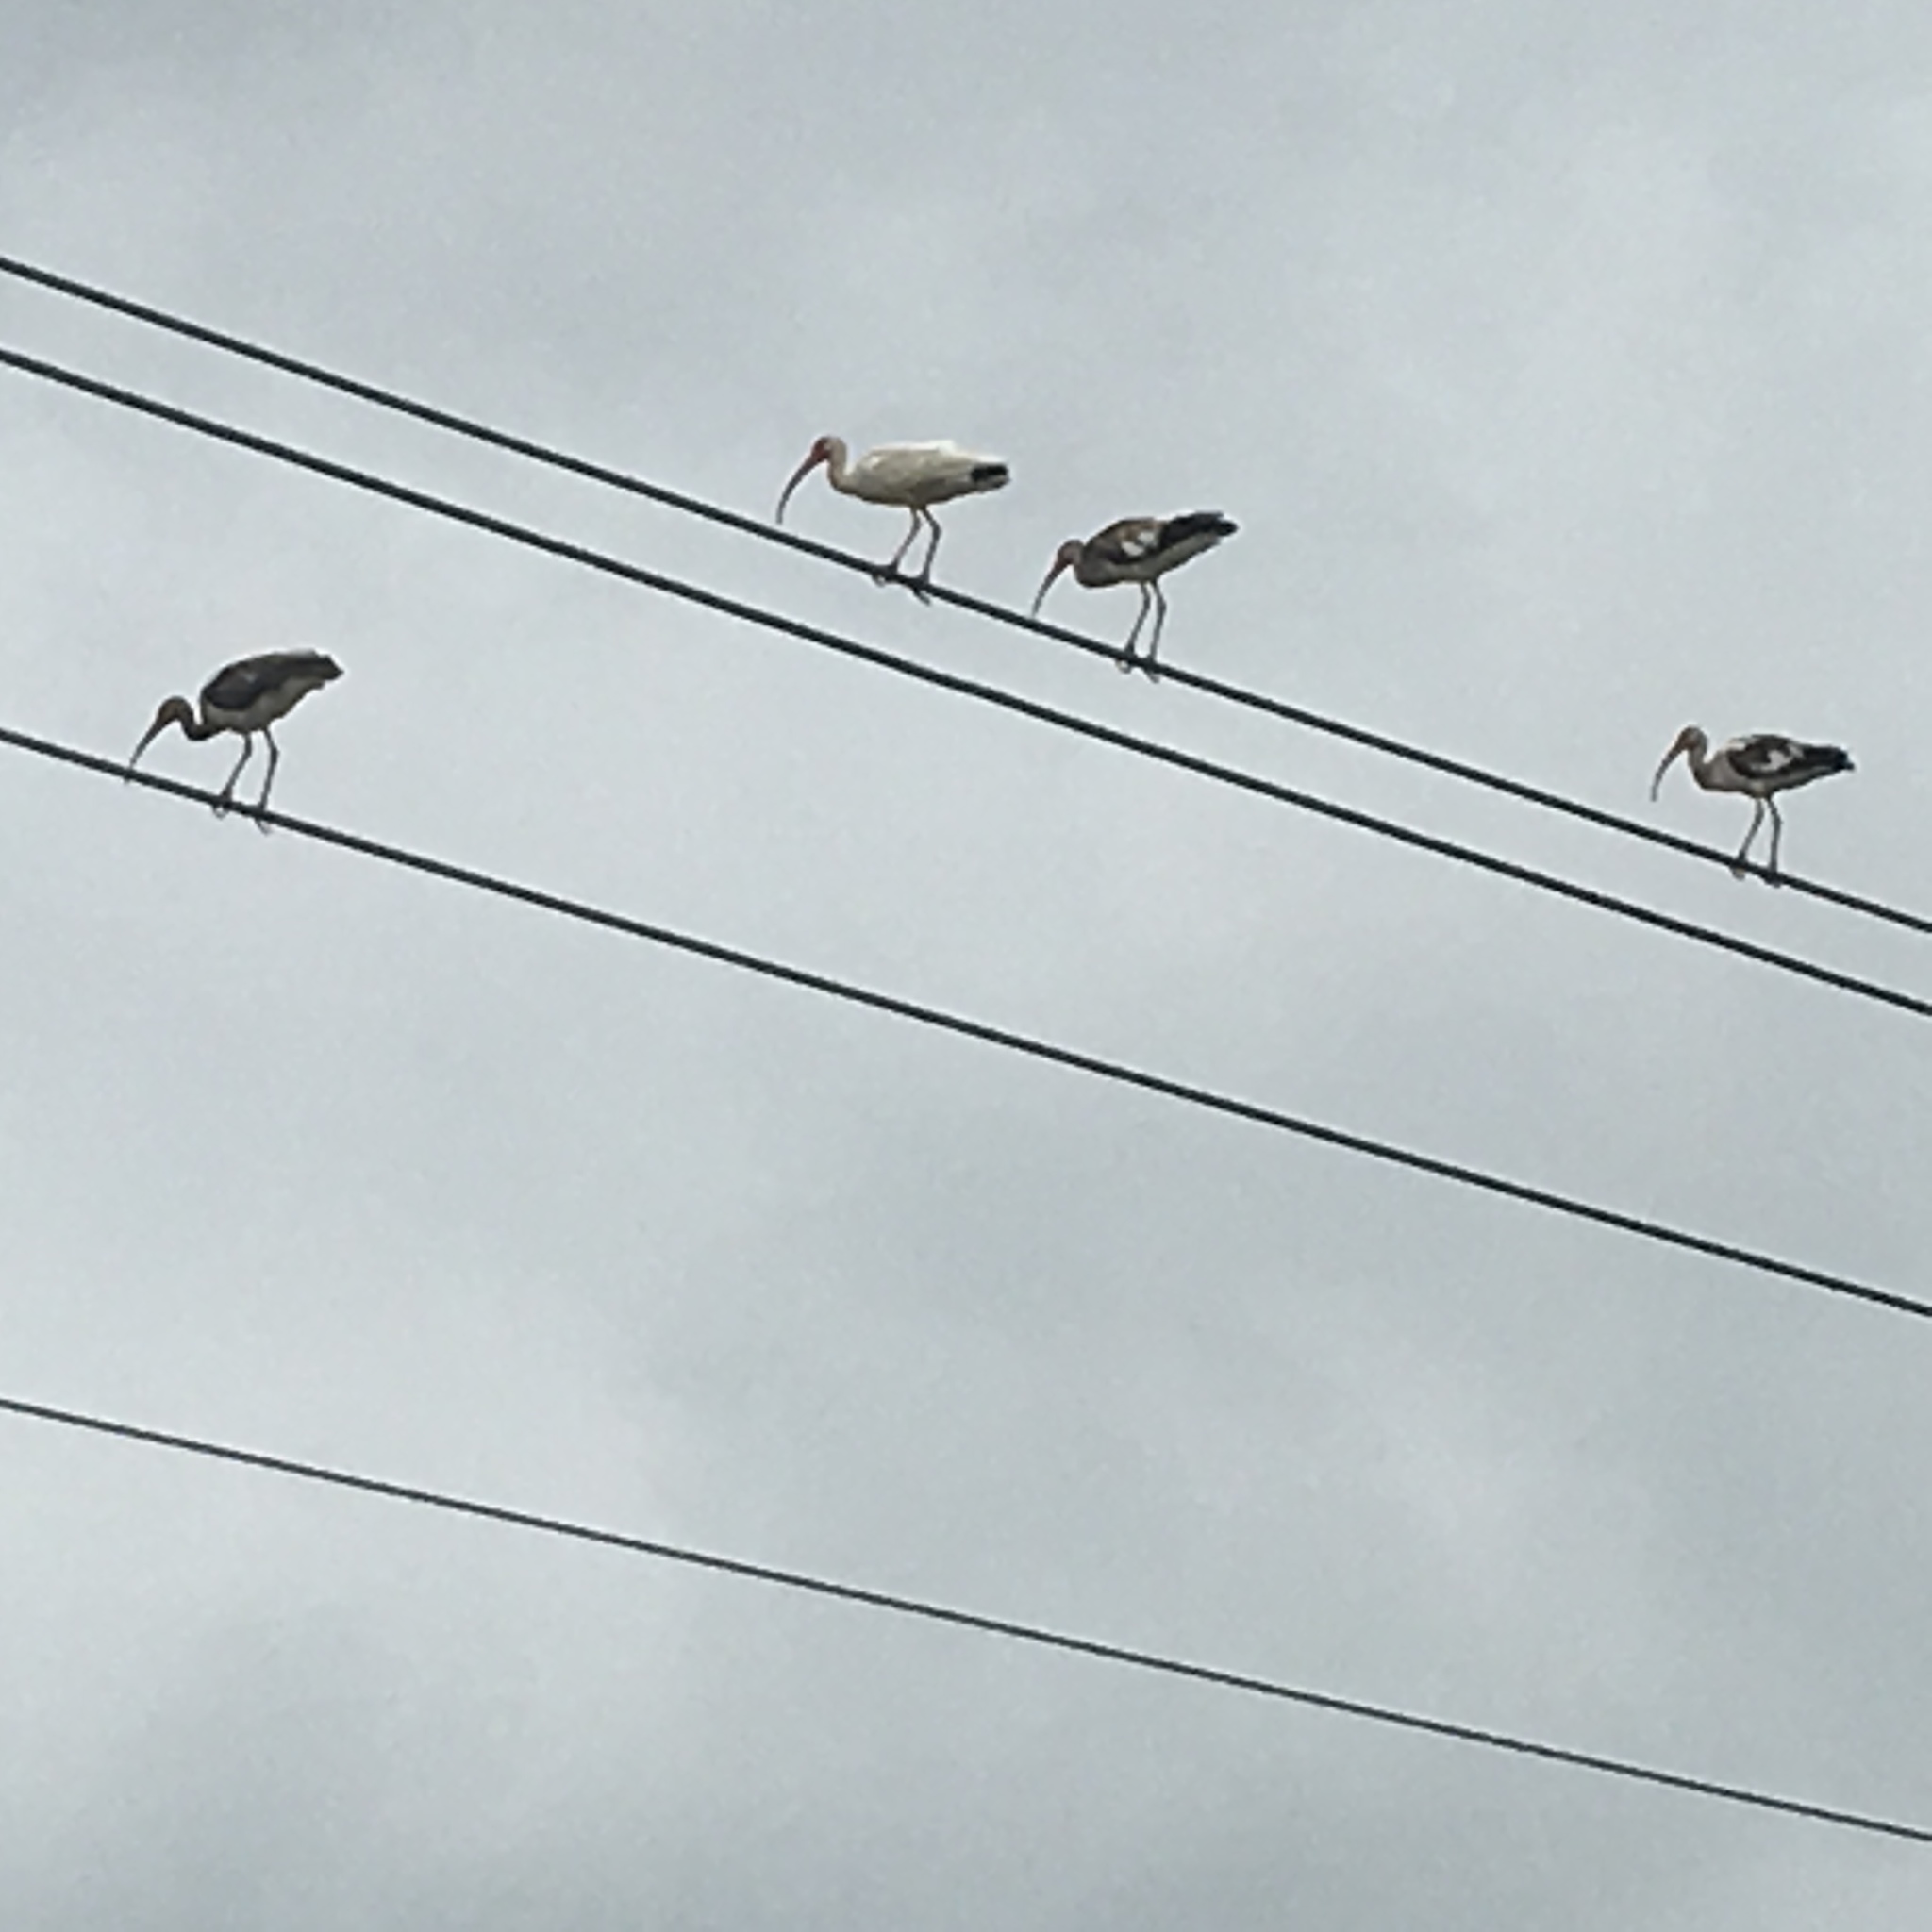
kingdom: Animalia
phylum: Chordata
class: Aves
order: Pelecaniformes
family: Threskiornithidae
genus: Eudocimus
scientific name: Eudocimus albus
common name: White ibis
